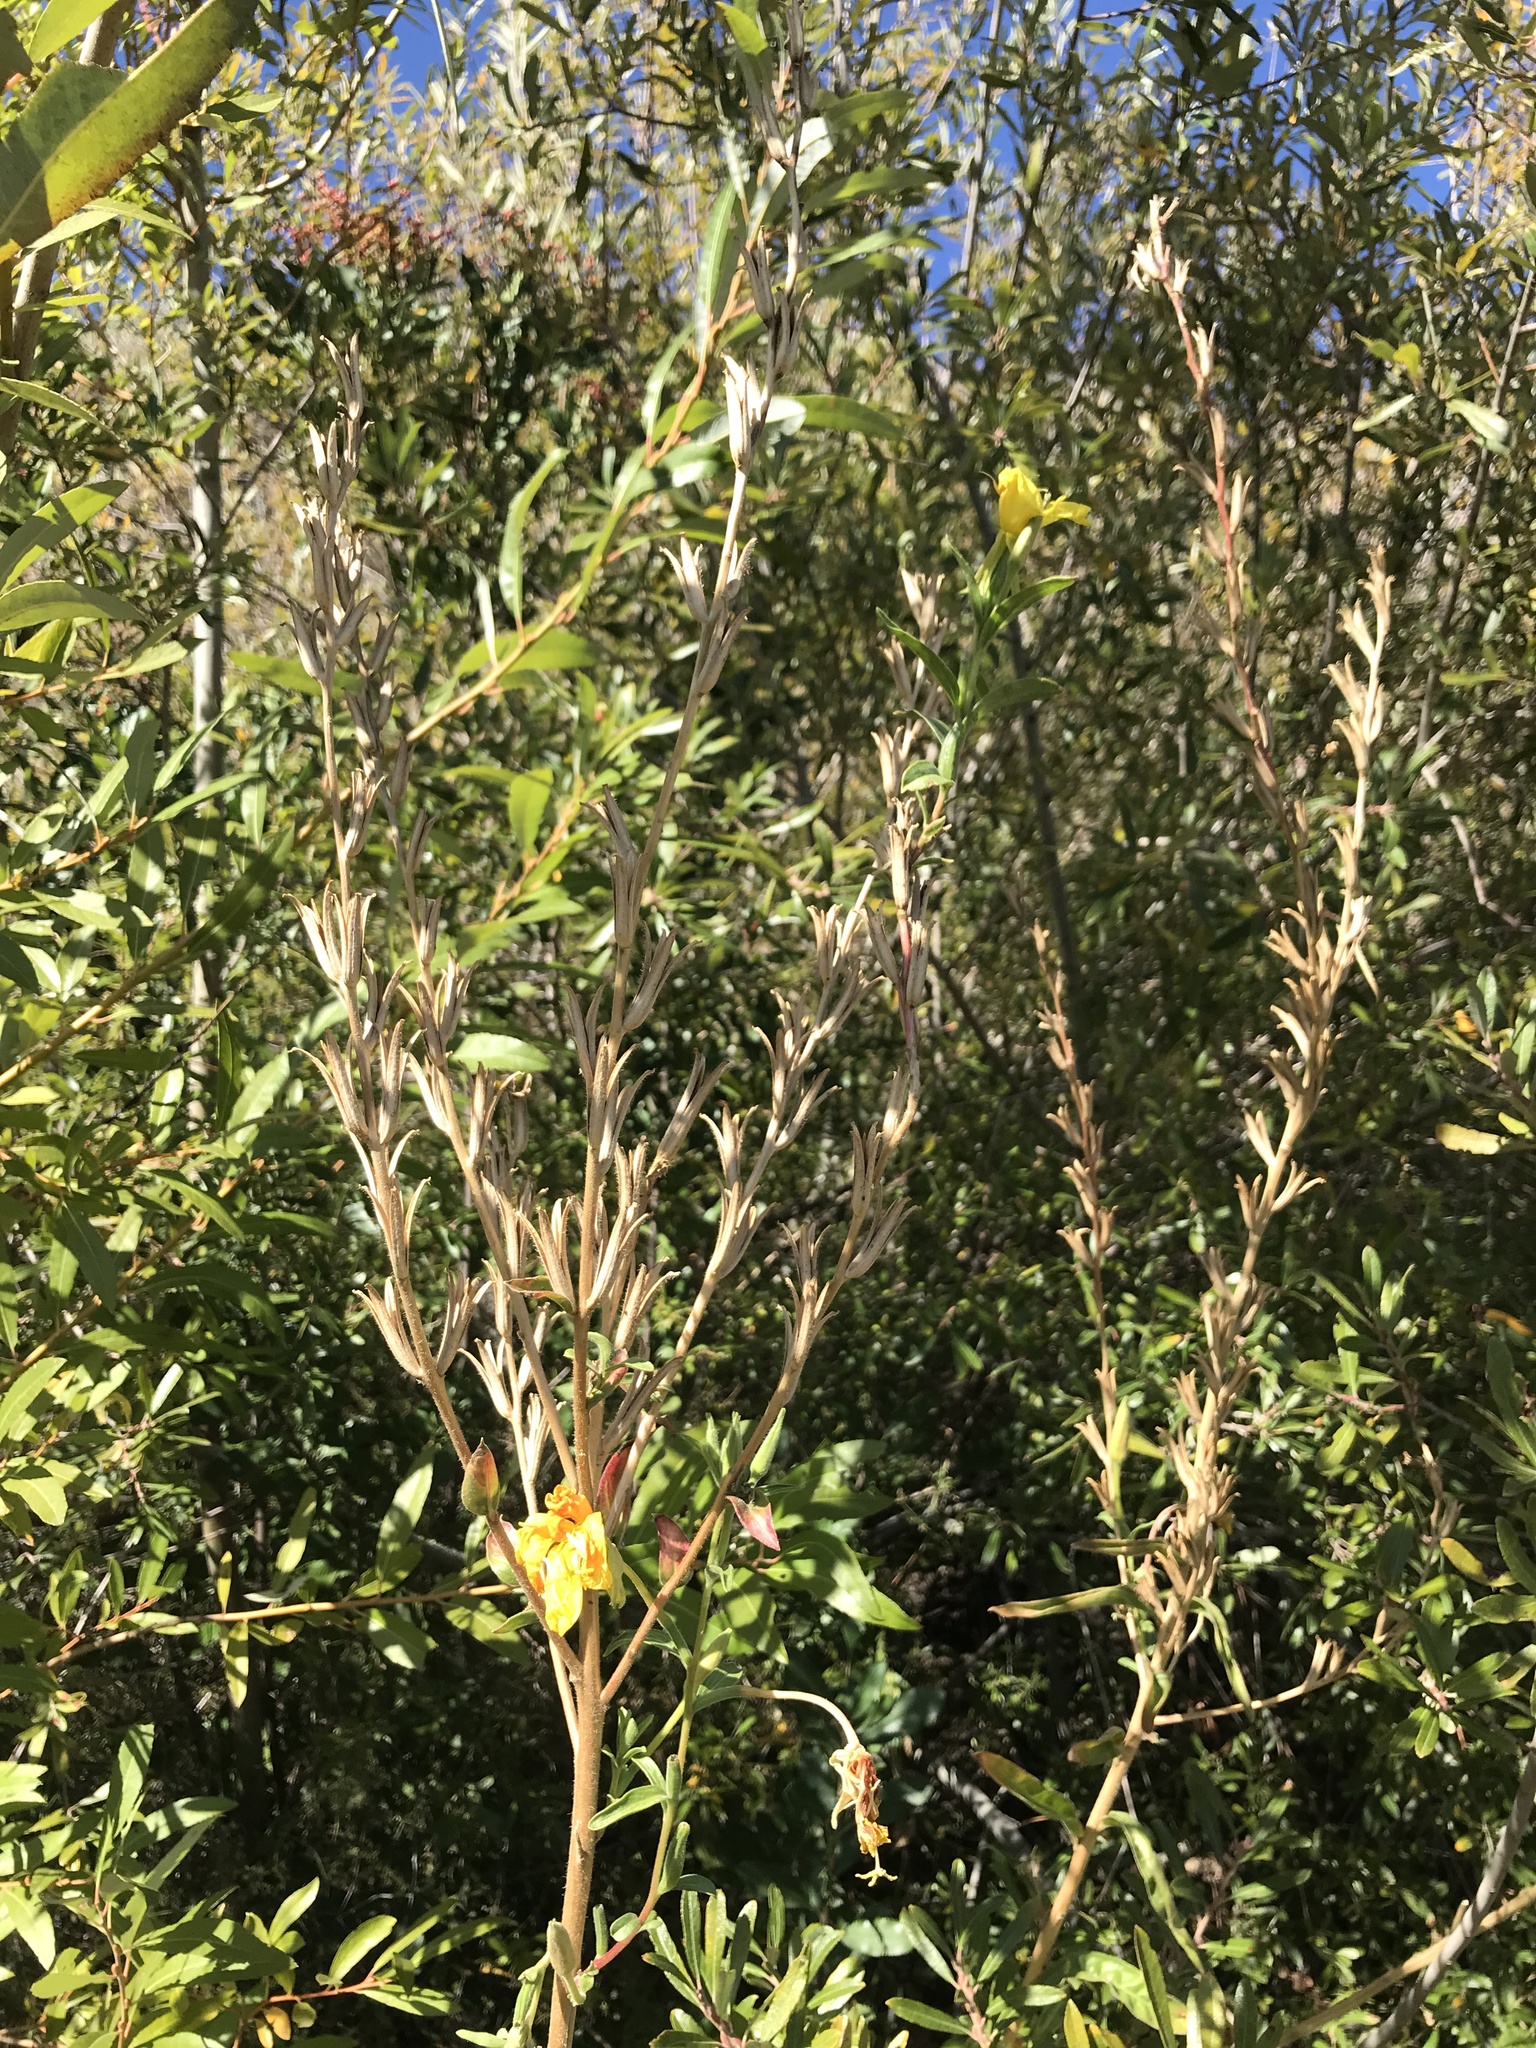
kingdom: Plantae
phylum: Tracheophyta
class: Magnoliopsida
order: Myrtales
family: Onagraceae
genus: Oenothera
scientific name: Oenothera elata
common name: Hooker's evening-primrose
